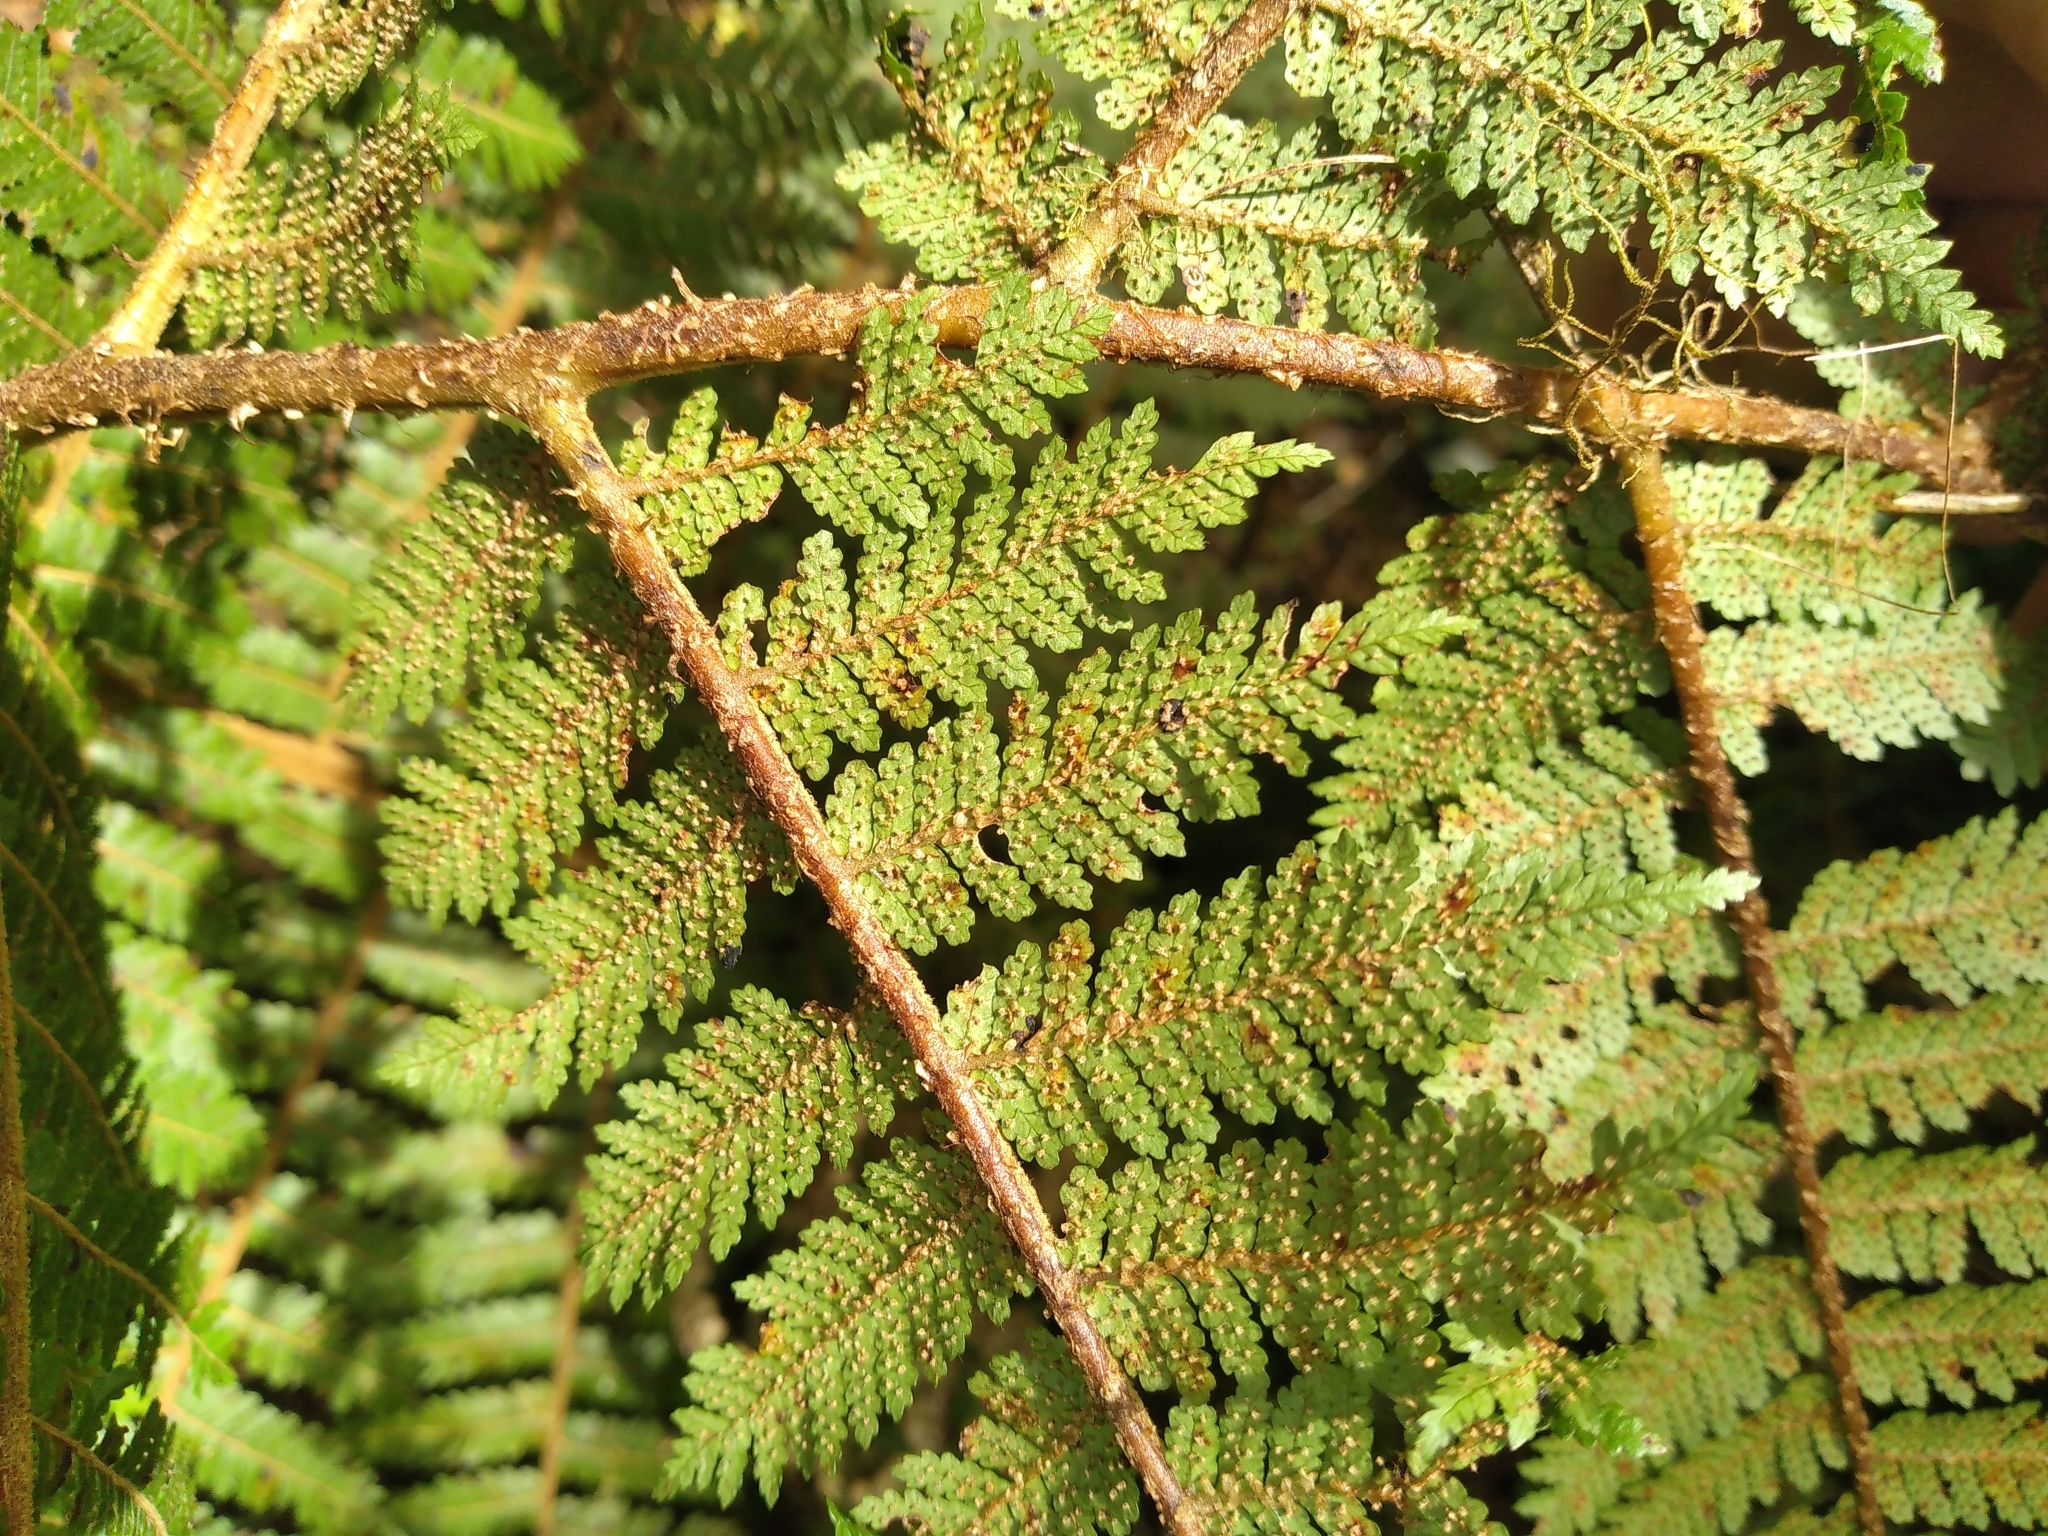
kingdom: Plantae
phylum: Tracheophyta
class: Polypodiopsida
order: Cyatheales
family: Cyatheaceae
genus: Alsophila
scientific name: Alsophila colensoi
